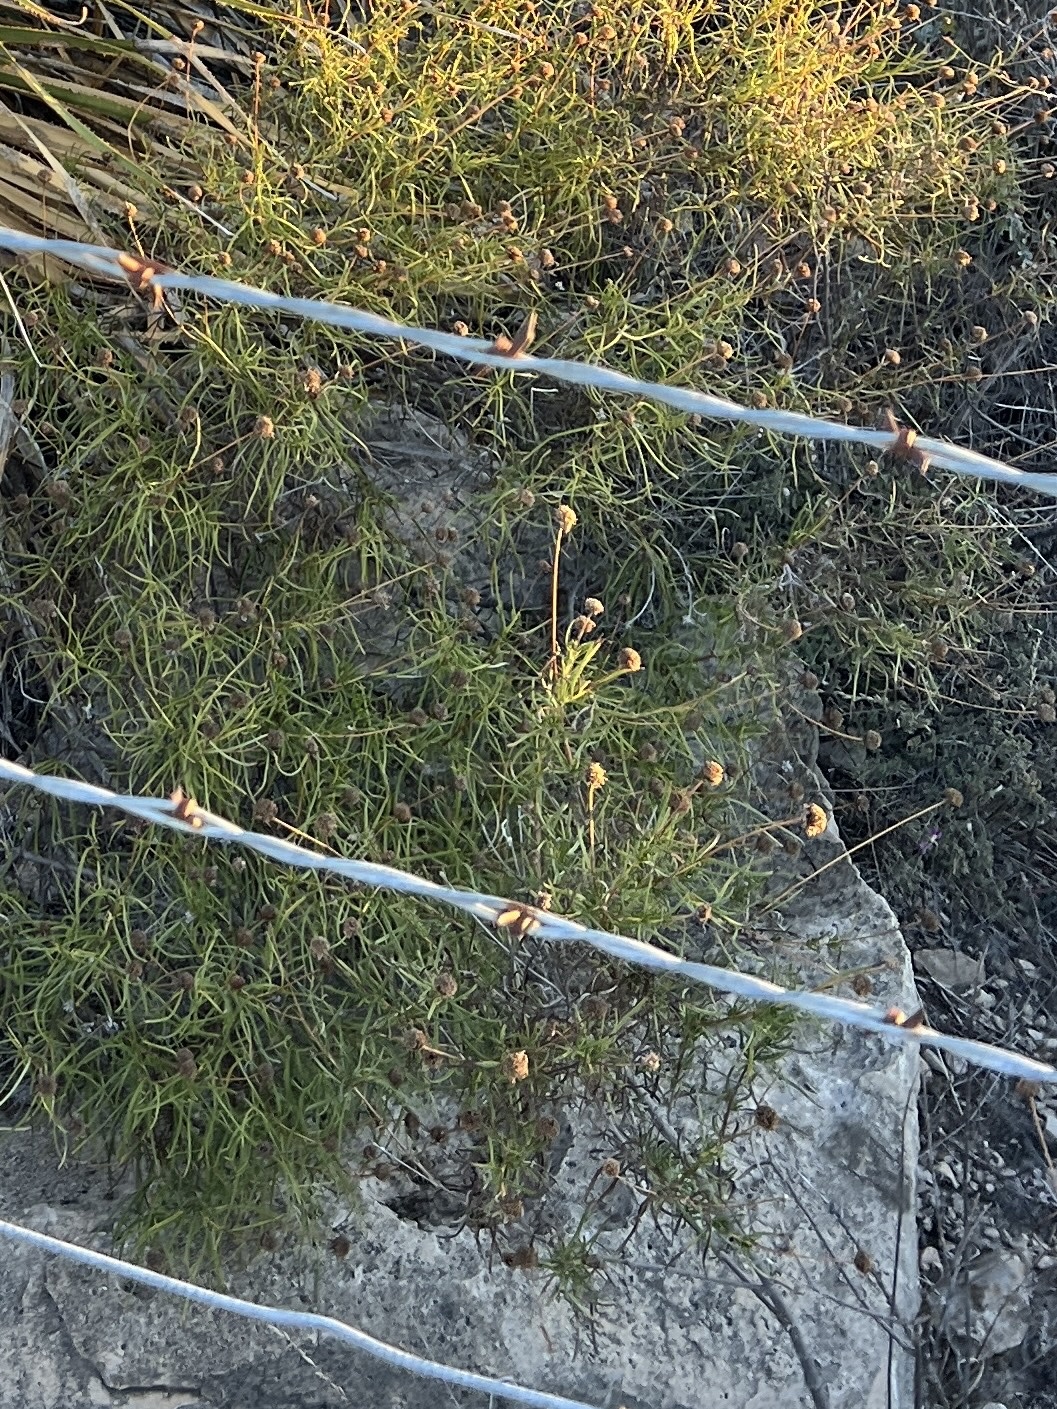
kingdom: Plantae
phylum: Tracheophyta
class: Magnoliopsida
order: Asterales
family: Asteraceae
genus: Sidneya
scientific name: Sidneya tenuifolia
